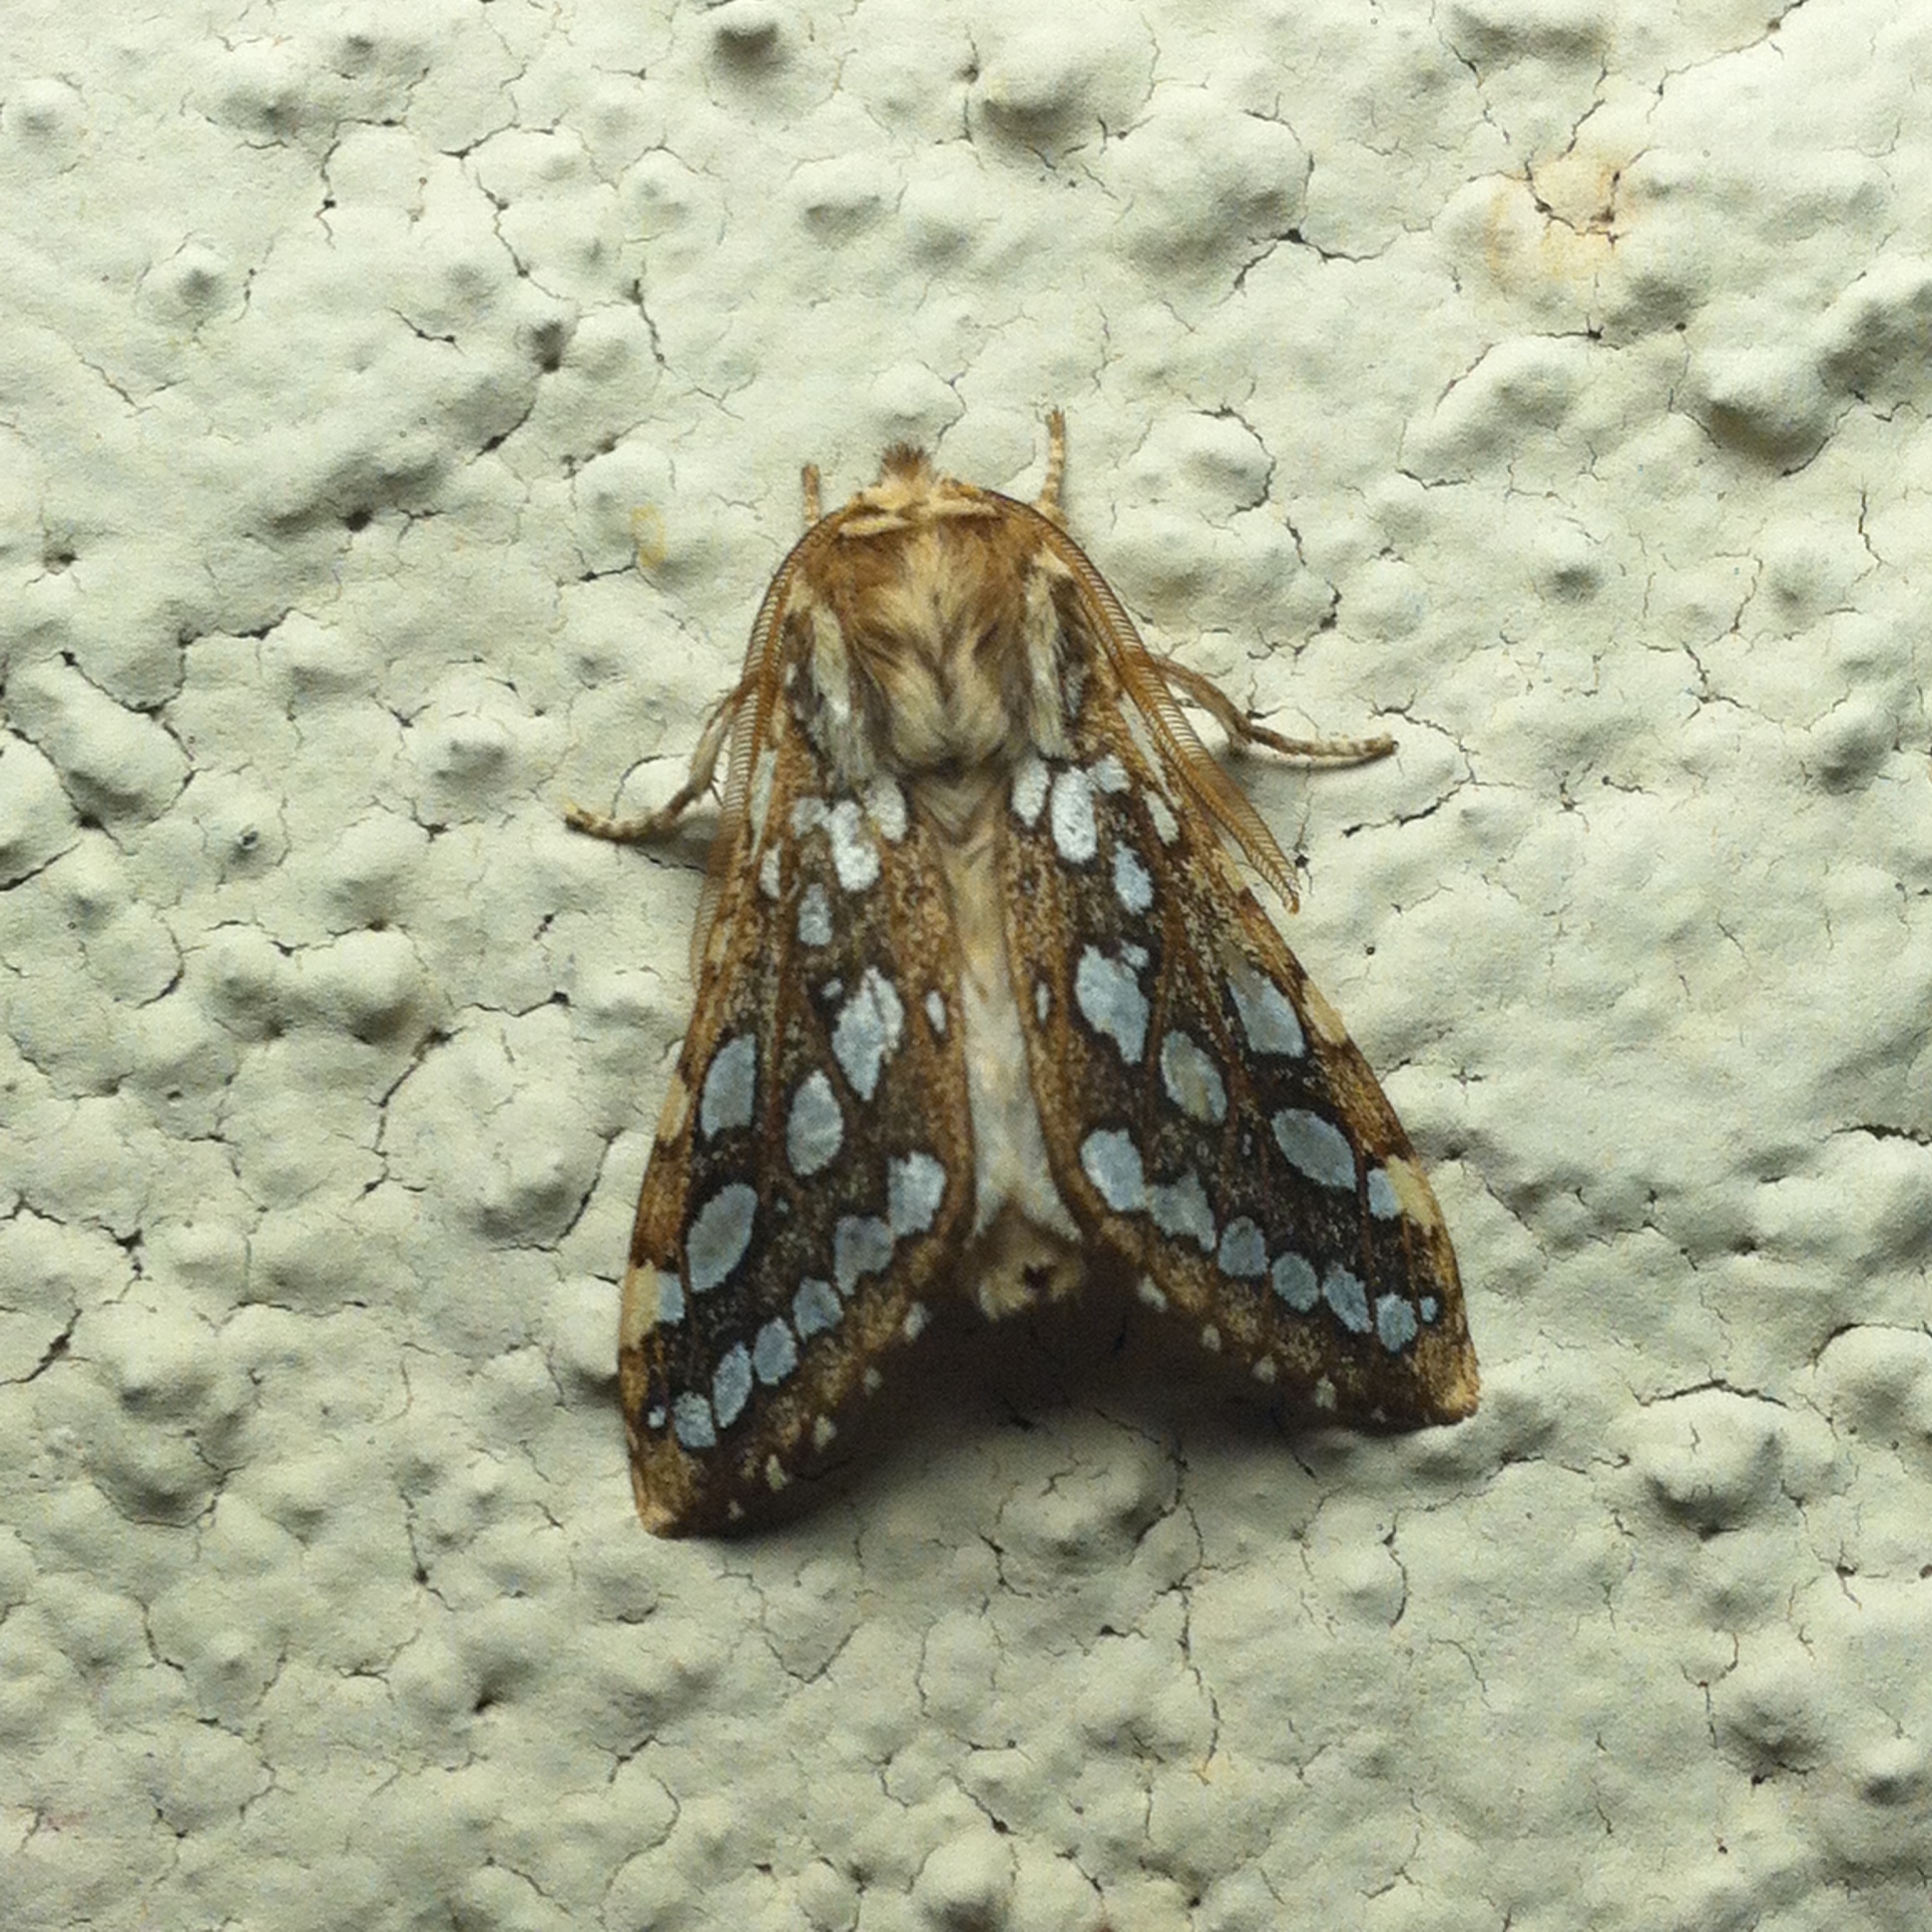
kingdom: Animalia
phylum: Arthropoda
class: Insecta
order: Lepidoptera
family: Erebidae
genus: Lophocampa
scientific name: Lophocampa argentata
